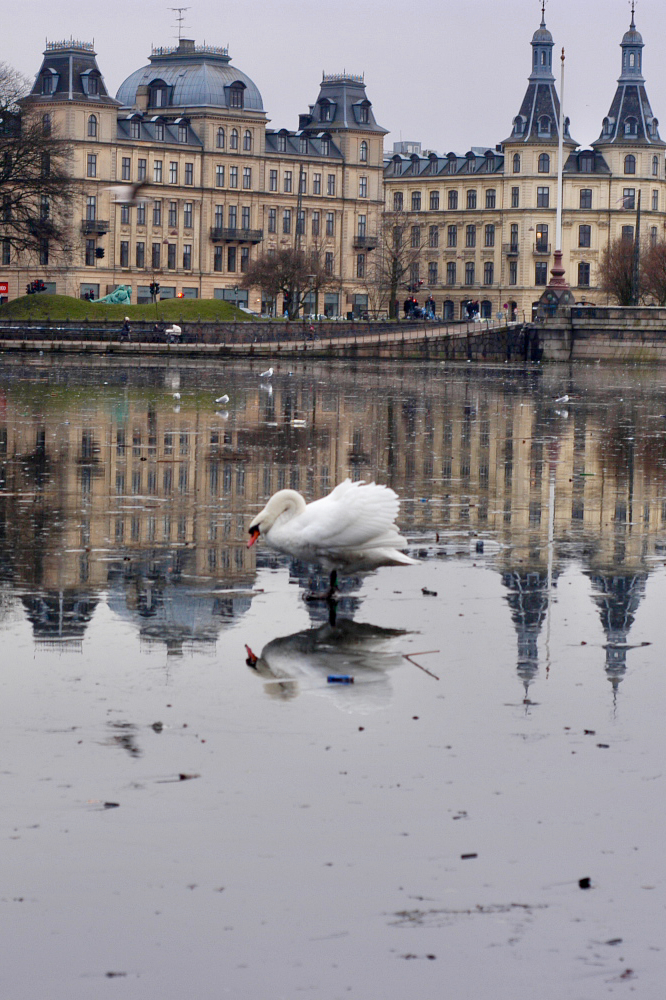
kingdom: Animalia
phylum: Chordata
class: Aves
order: Anseriformes
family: Anatidae
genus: Cygnus
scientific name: Cygnus olor
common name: Mute swan
